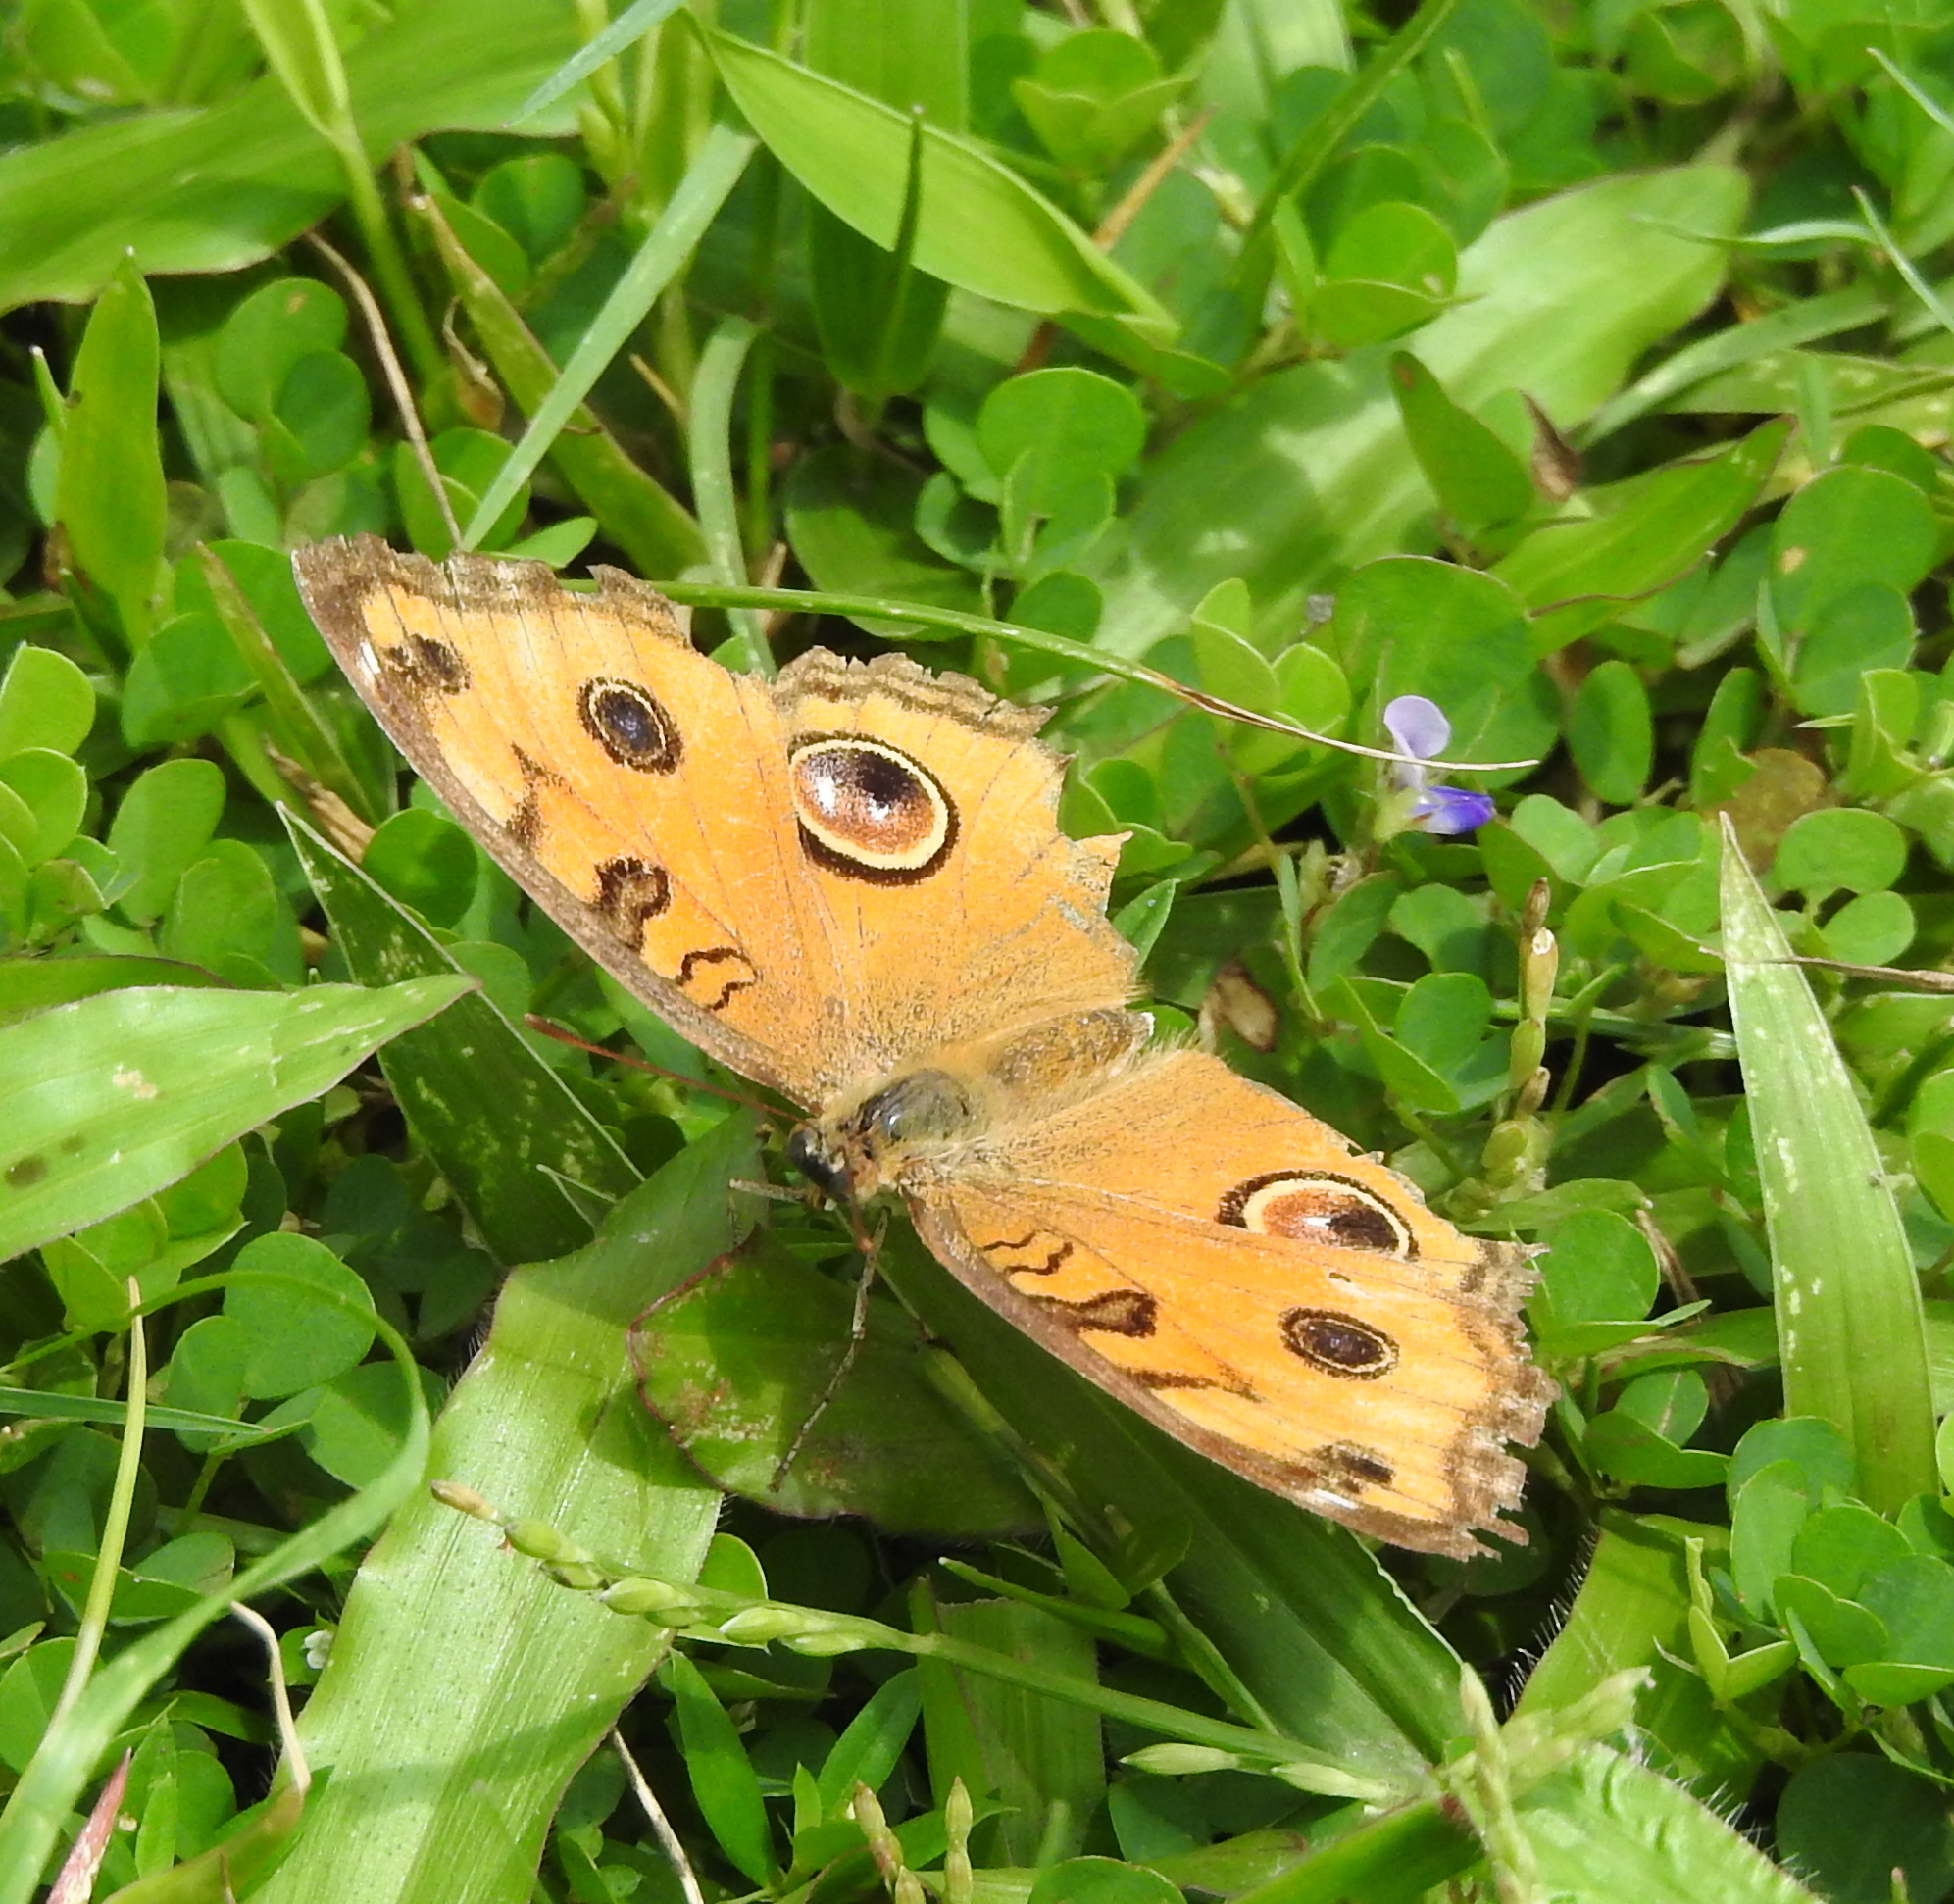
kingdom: Animalia
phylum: Arthropoda
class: Insecta
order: Lepidoptera
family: Nymphalidae
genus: Junonia
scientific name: Junonia almana
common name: Peacock pansy
